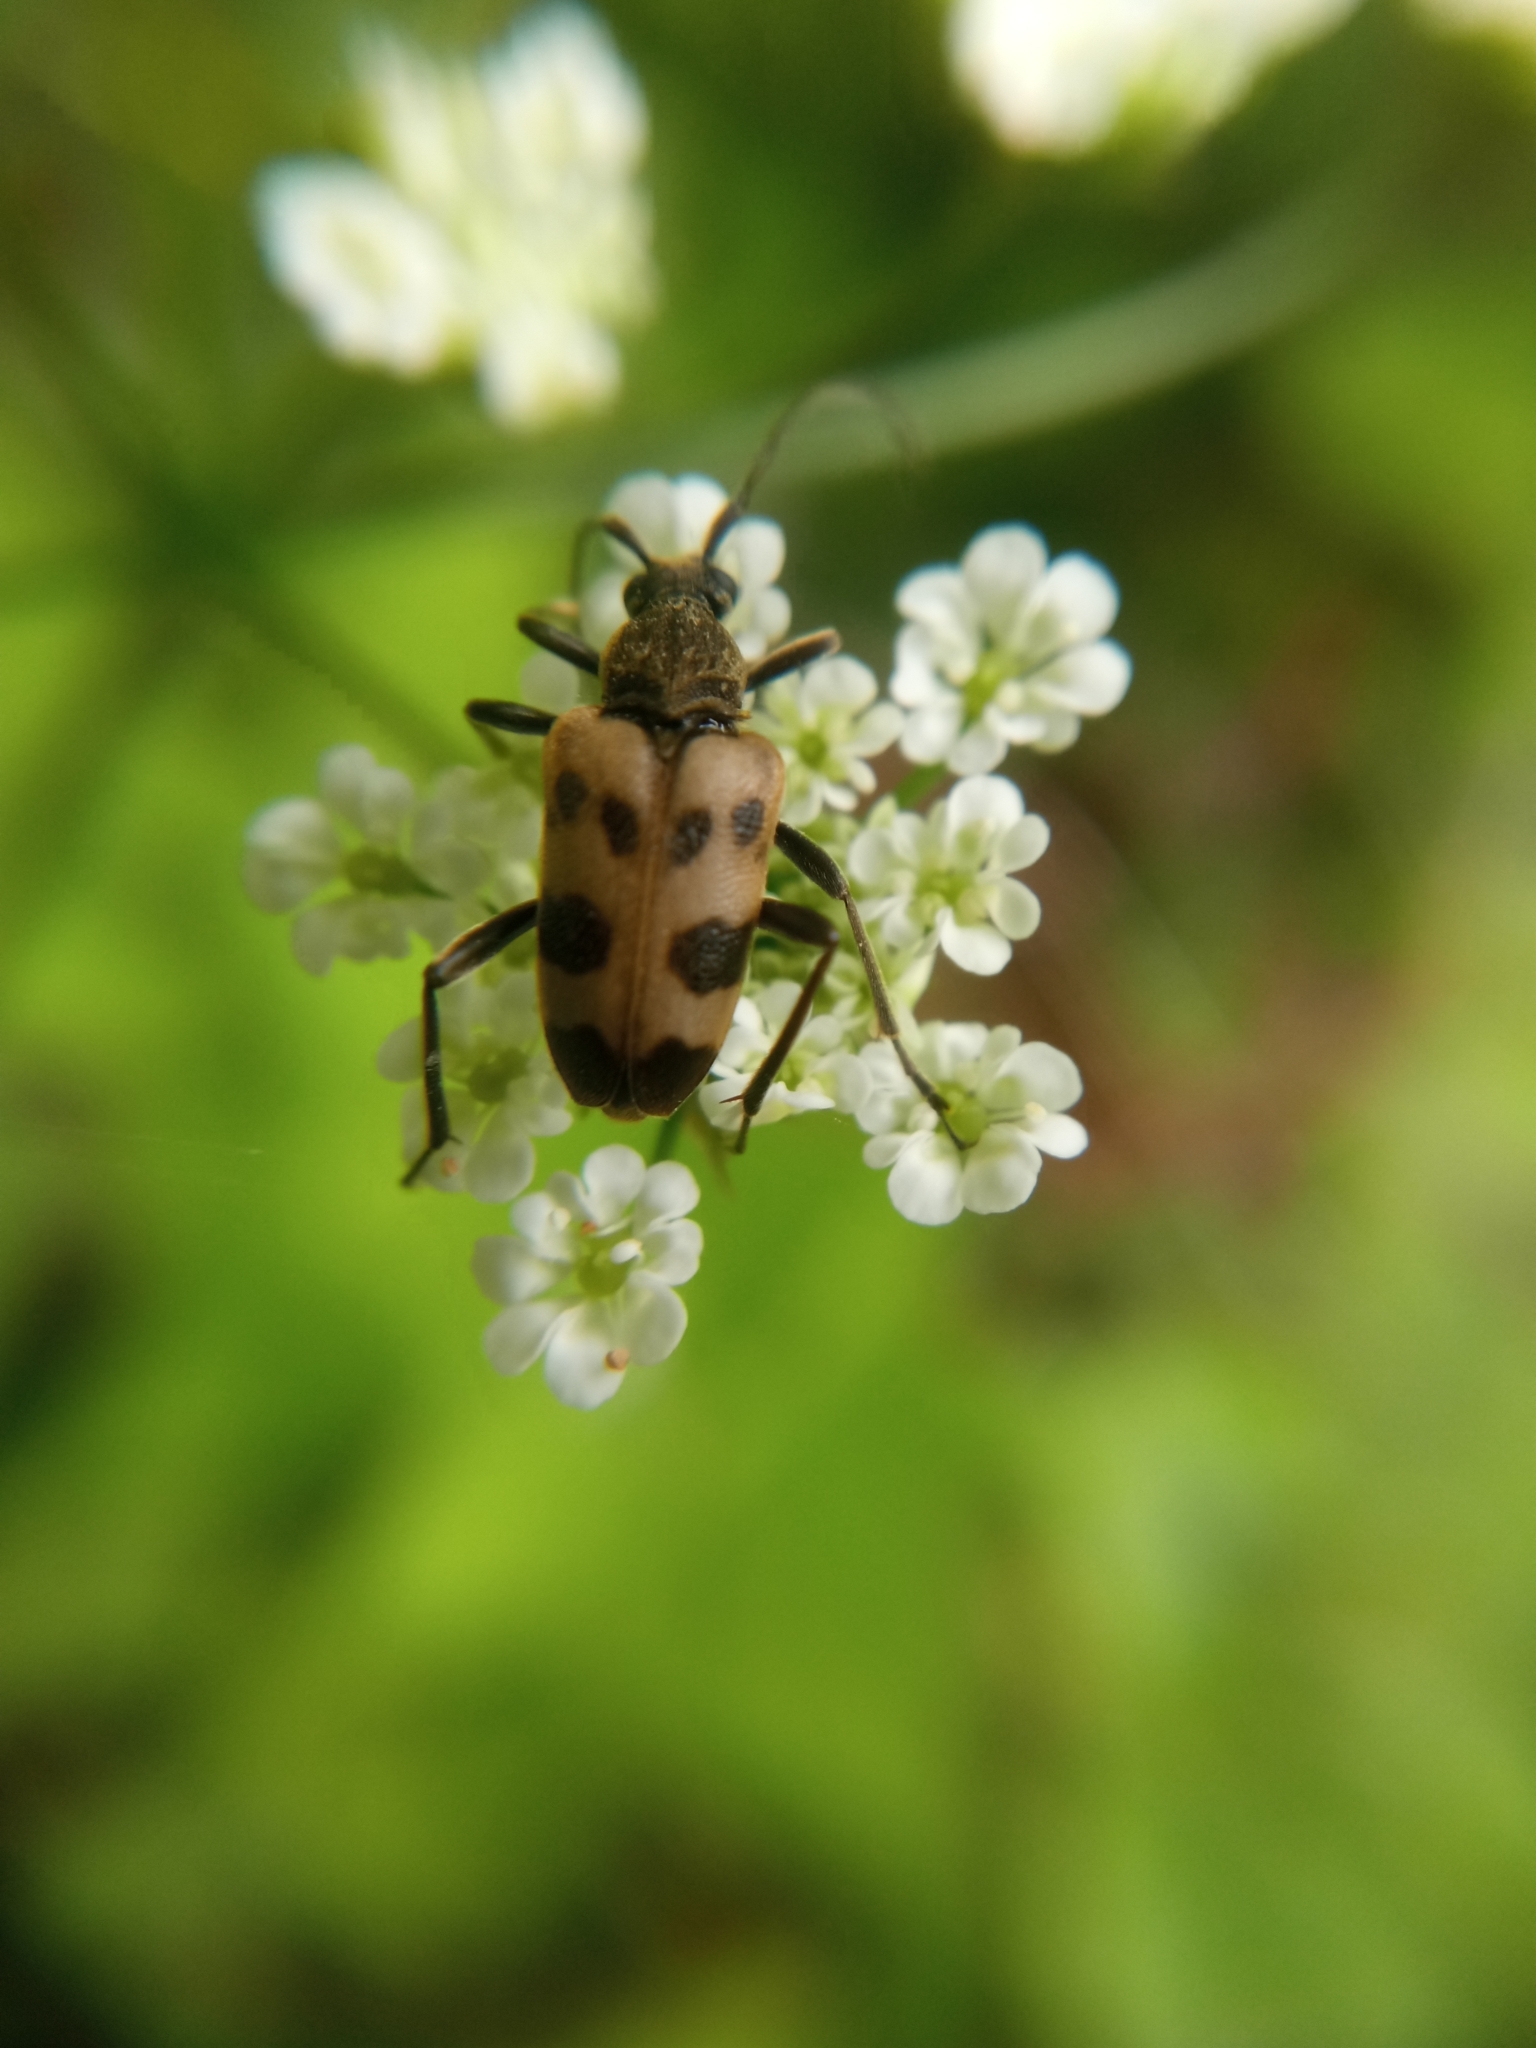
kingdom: Animalia
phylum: Arthropoda
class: Insecta
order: Coleoptera
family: Cerambycidae
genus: Pachytodes
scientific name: Pachytodes cerambyciformis
